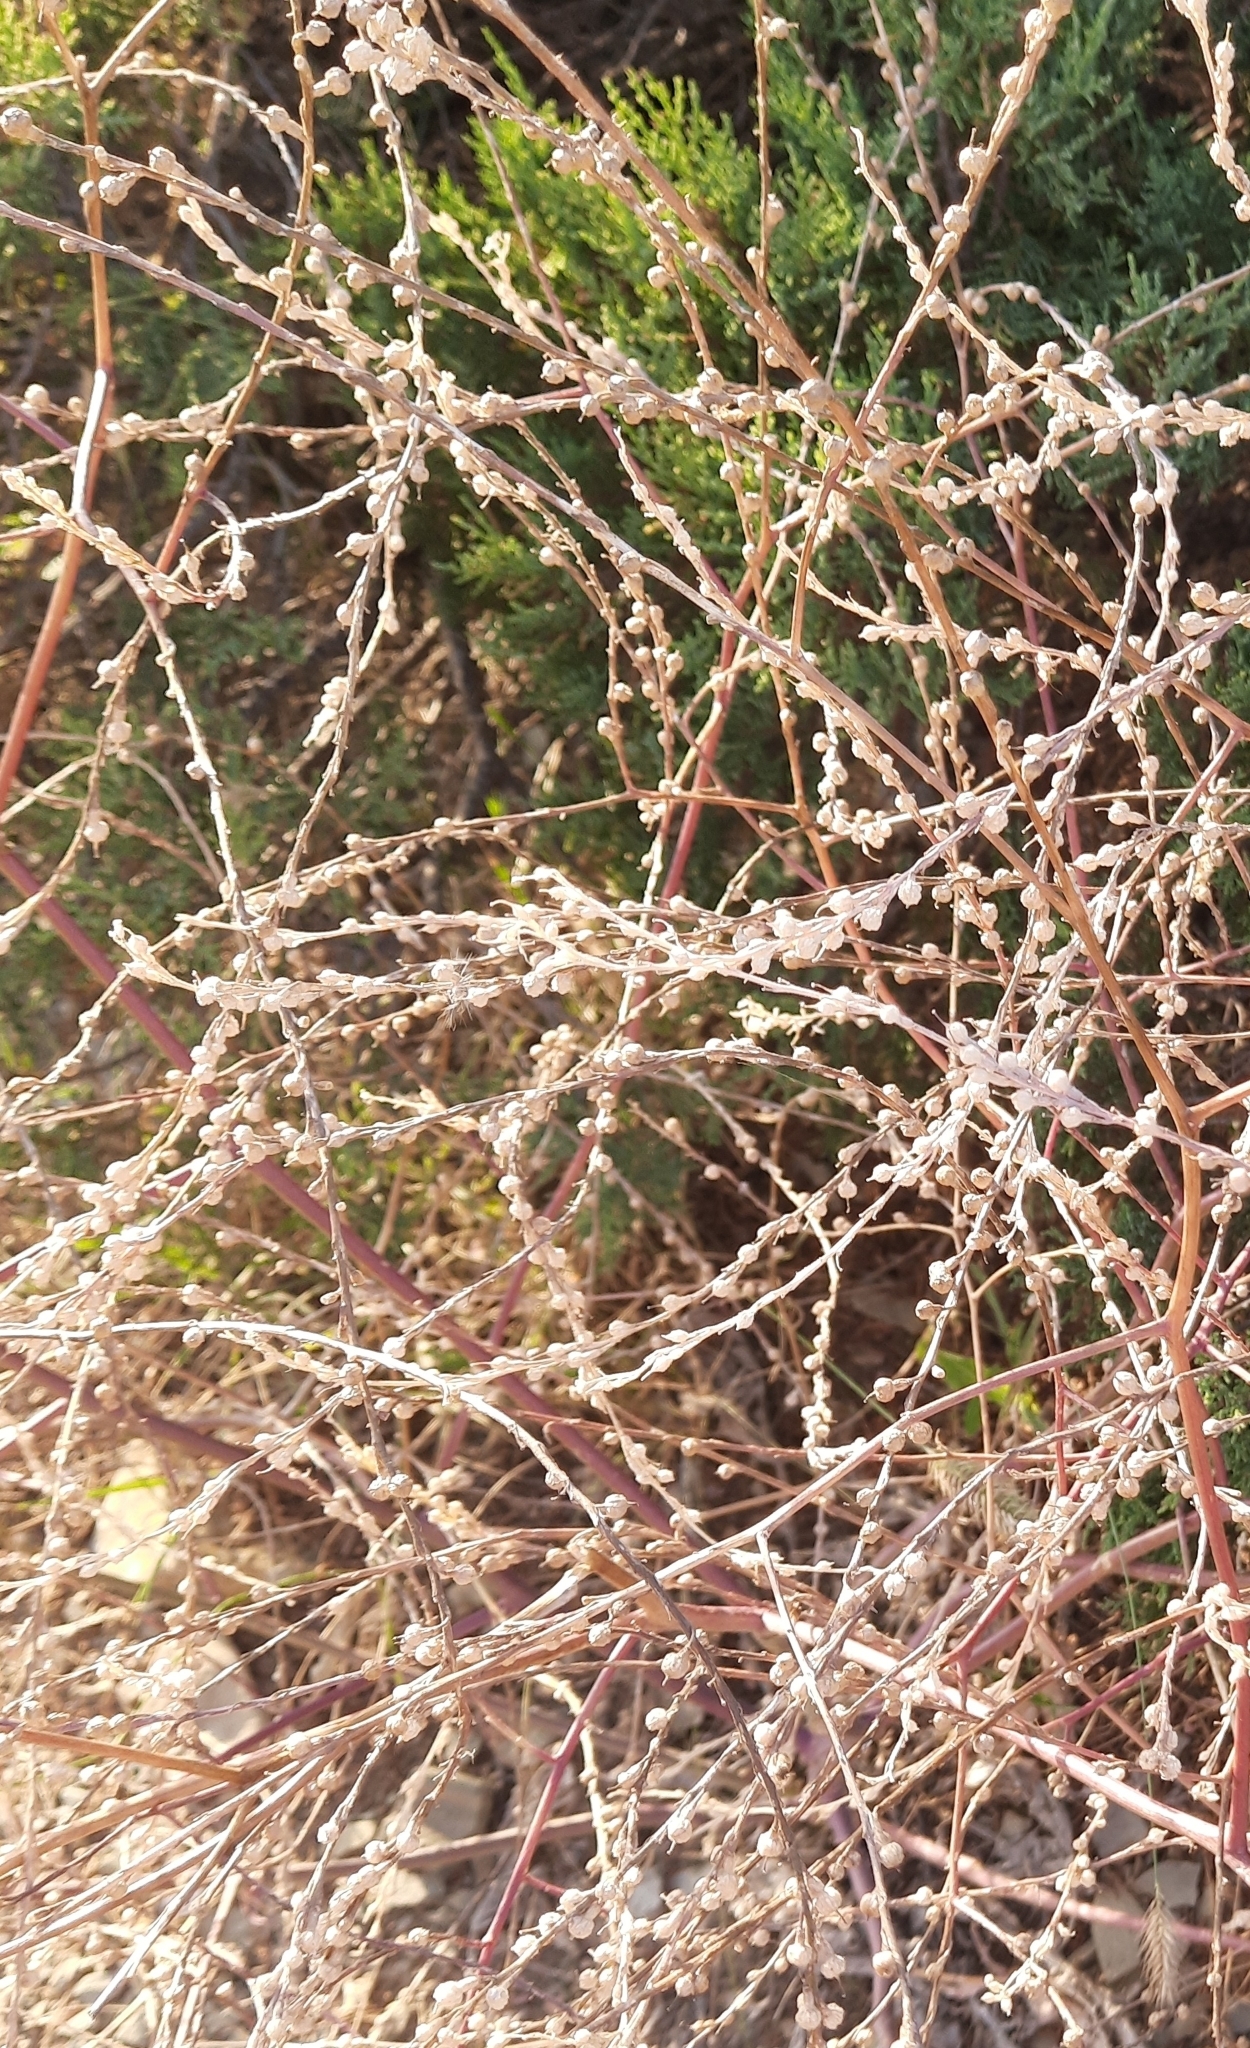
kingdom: Plantae
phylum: Tracheophyta
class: Magnoliopsida
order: Brassicales
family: Brassicaceae
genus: Rapistrum
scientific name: Rapistrum rugosum
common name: Annual bastardcabbage
